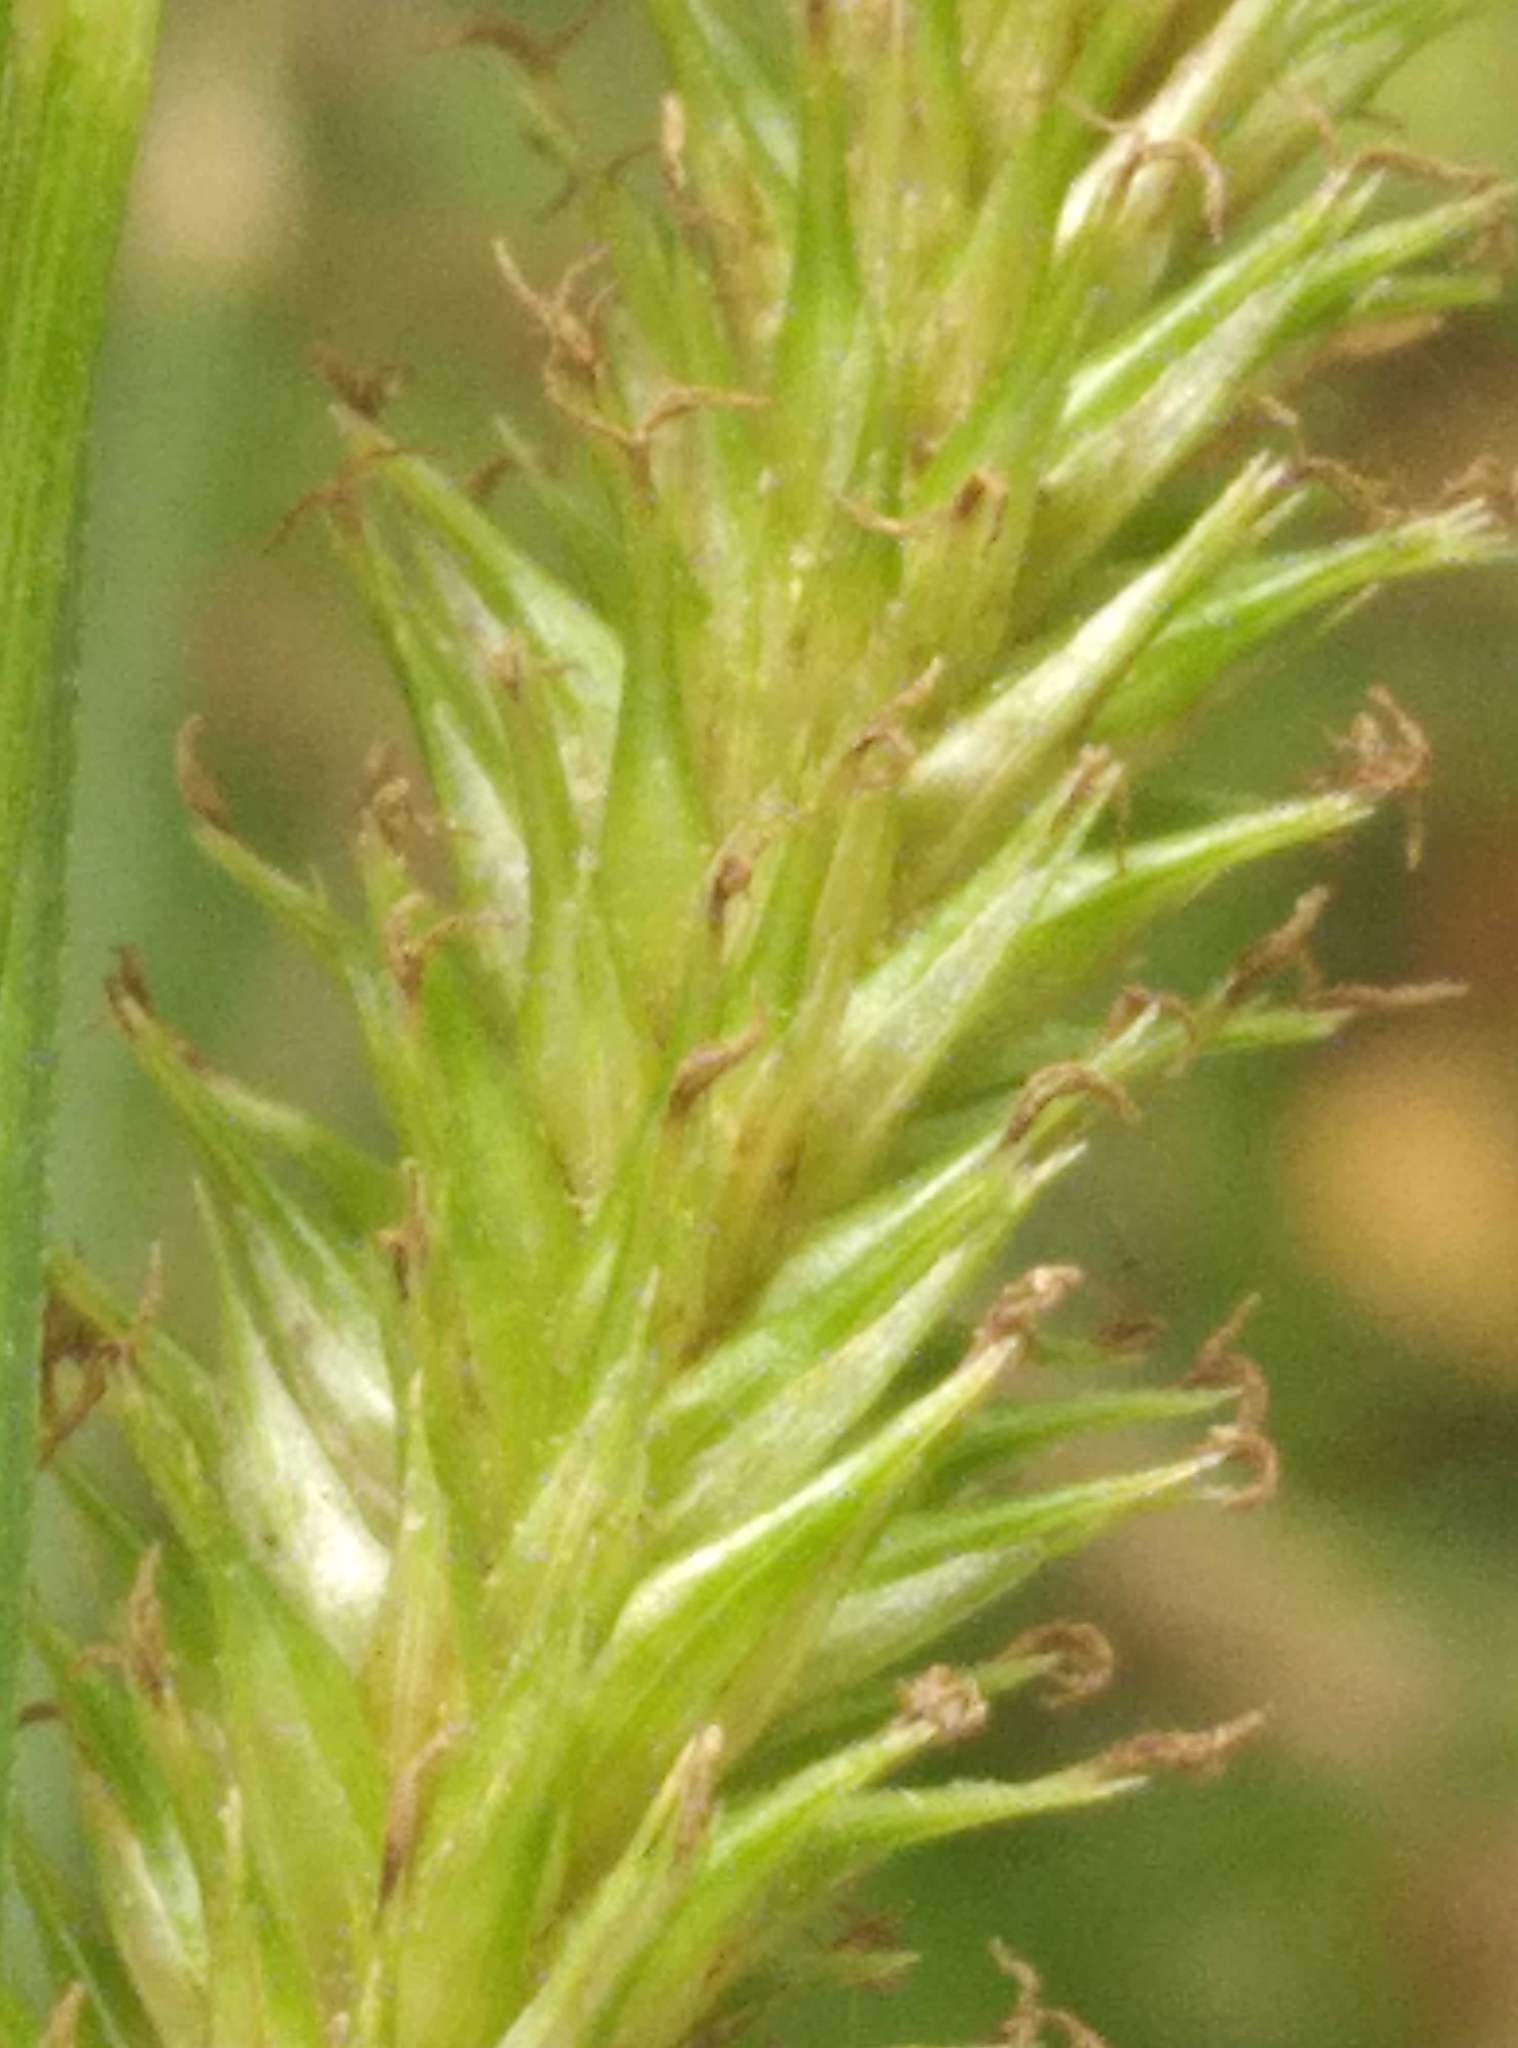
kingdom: Plantae
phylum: Tracheophyta
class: Liliopsida
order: Poales
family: Cyperaceae
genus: Carex
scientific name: Carex forsteri
